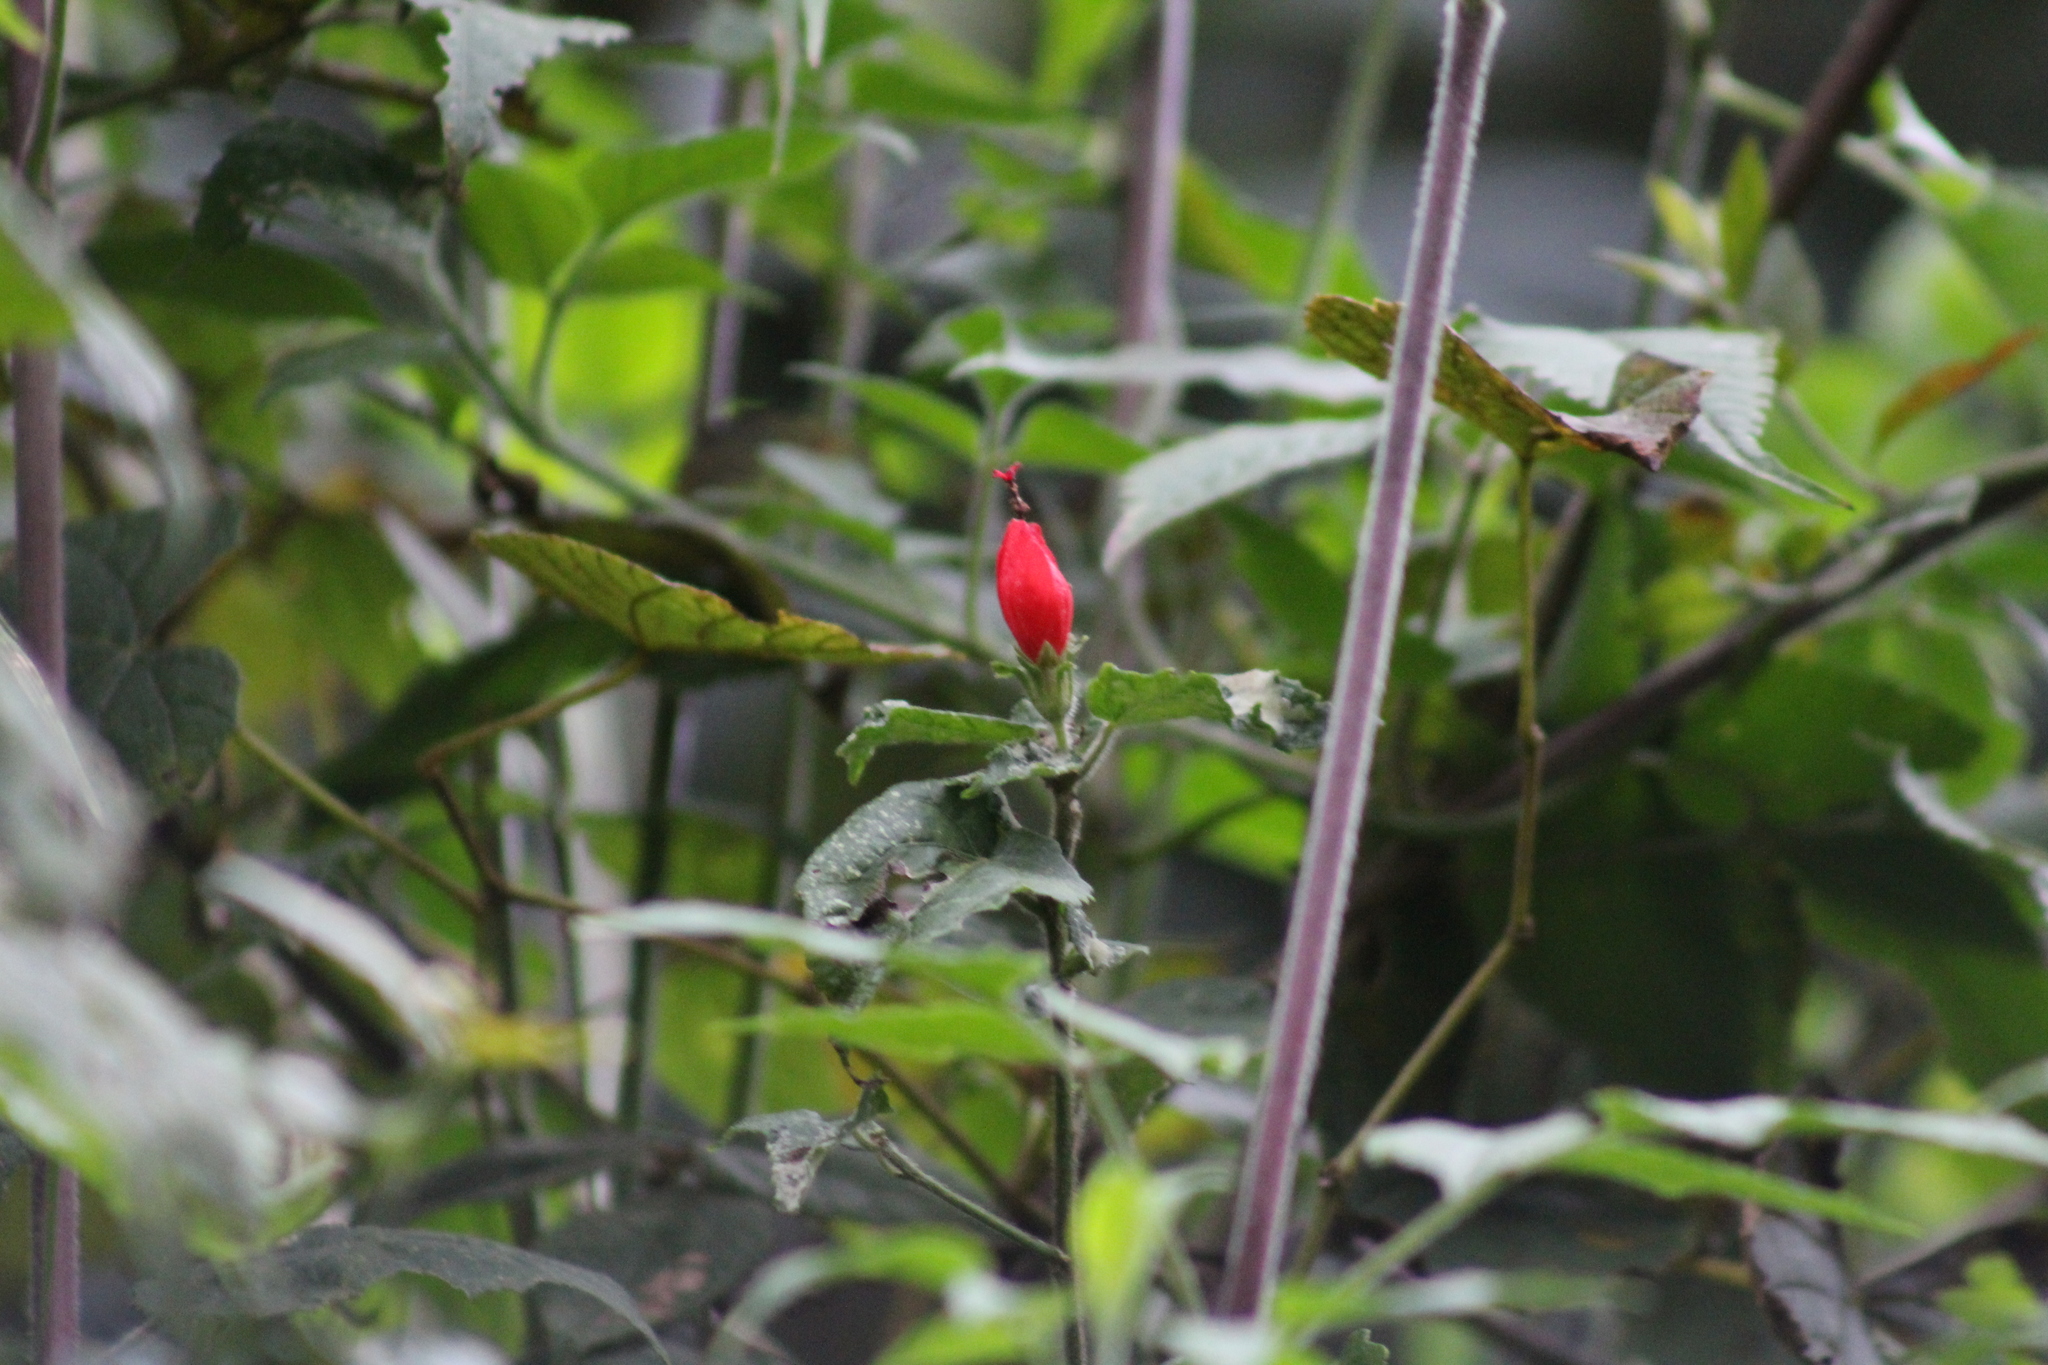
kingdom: Plantae
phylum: Tracheophyta
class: Magnoliopsida
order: Malvales
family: Malvaceae
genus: Malvaviscus
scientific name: Malvaviscus arboreus
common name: Wax mallow
